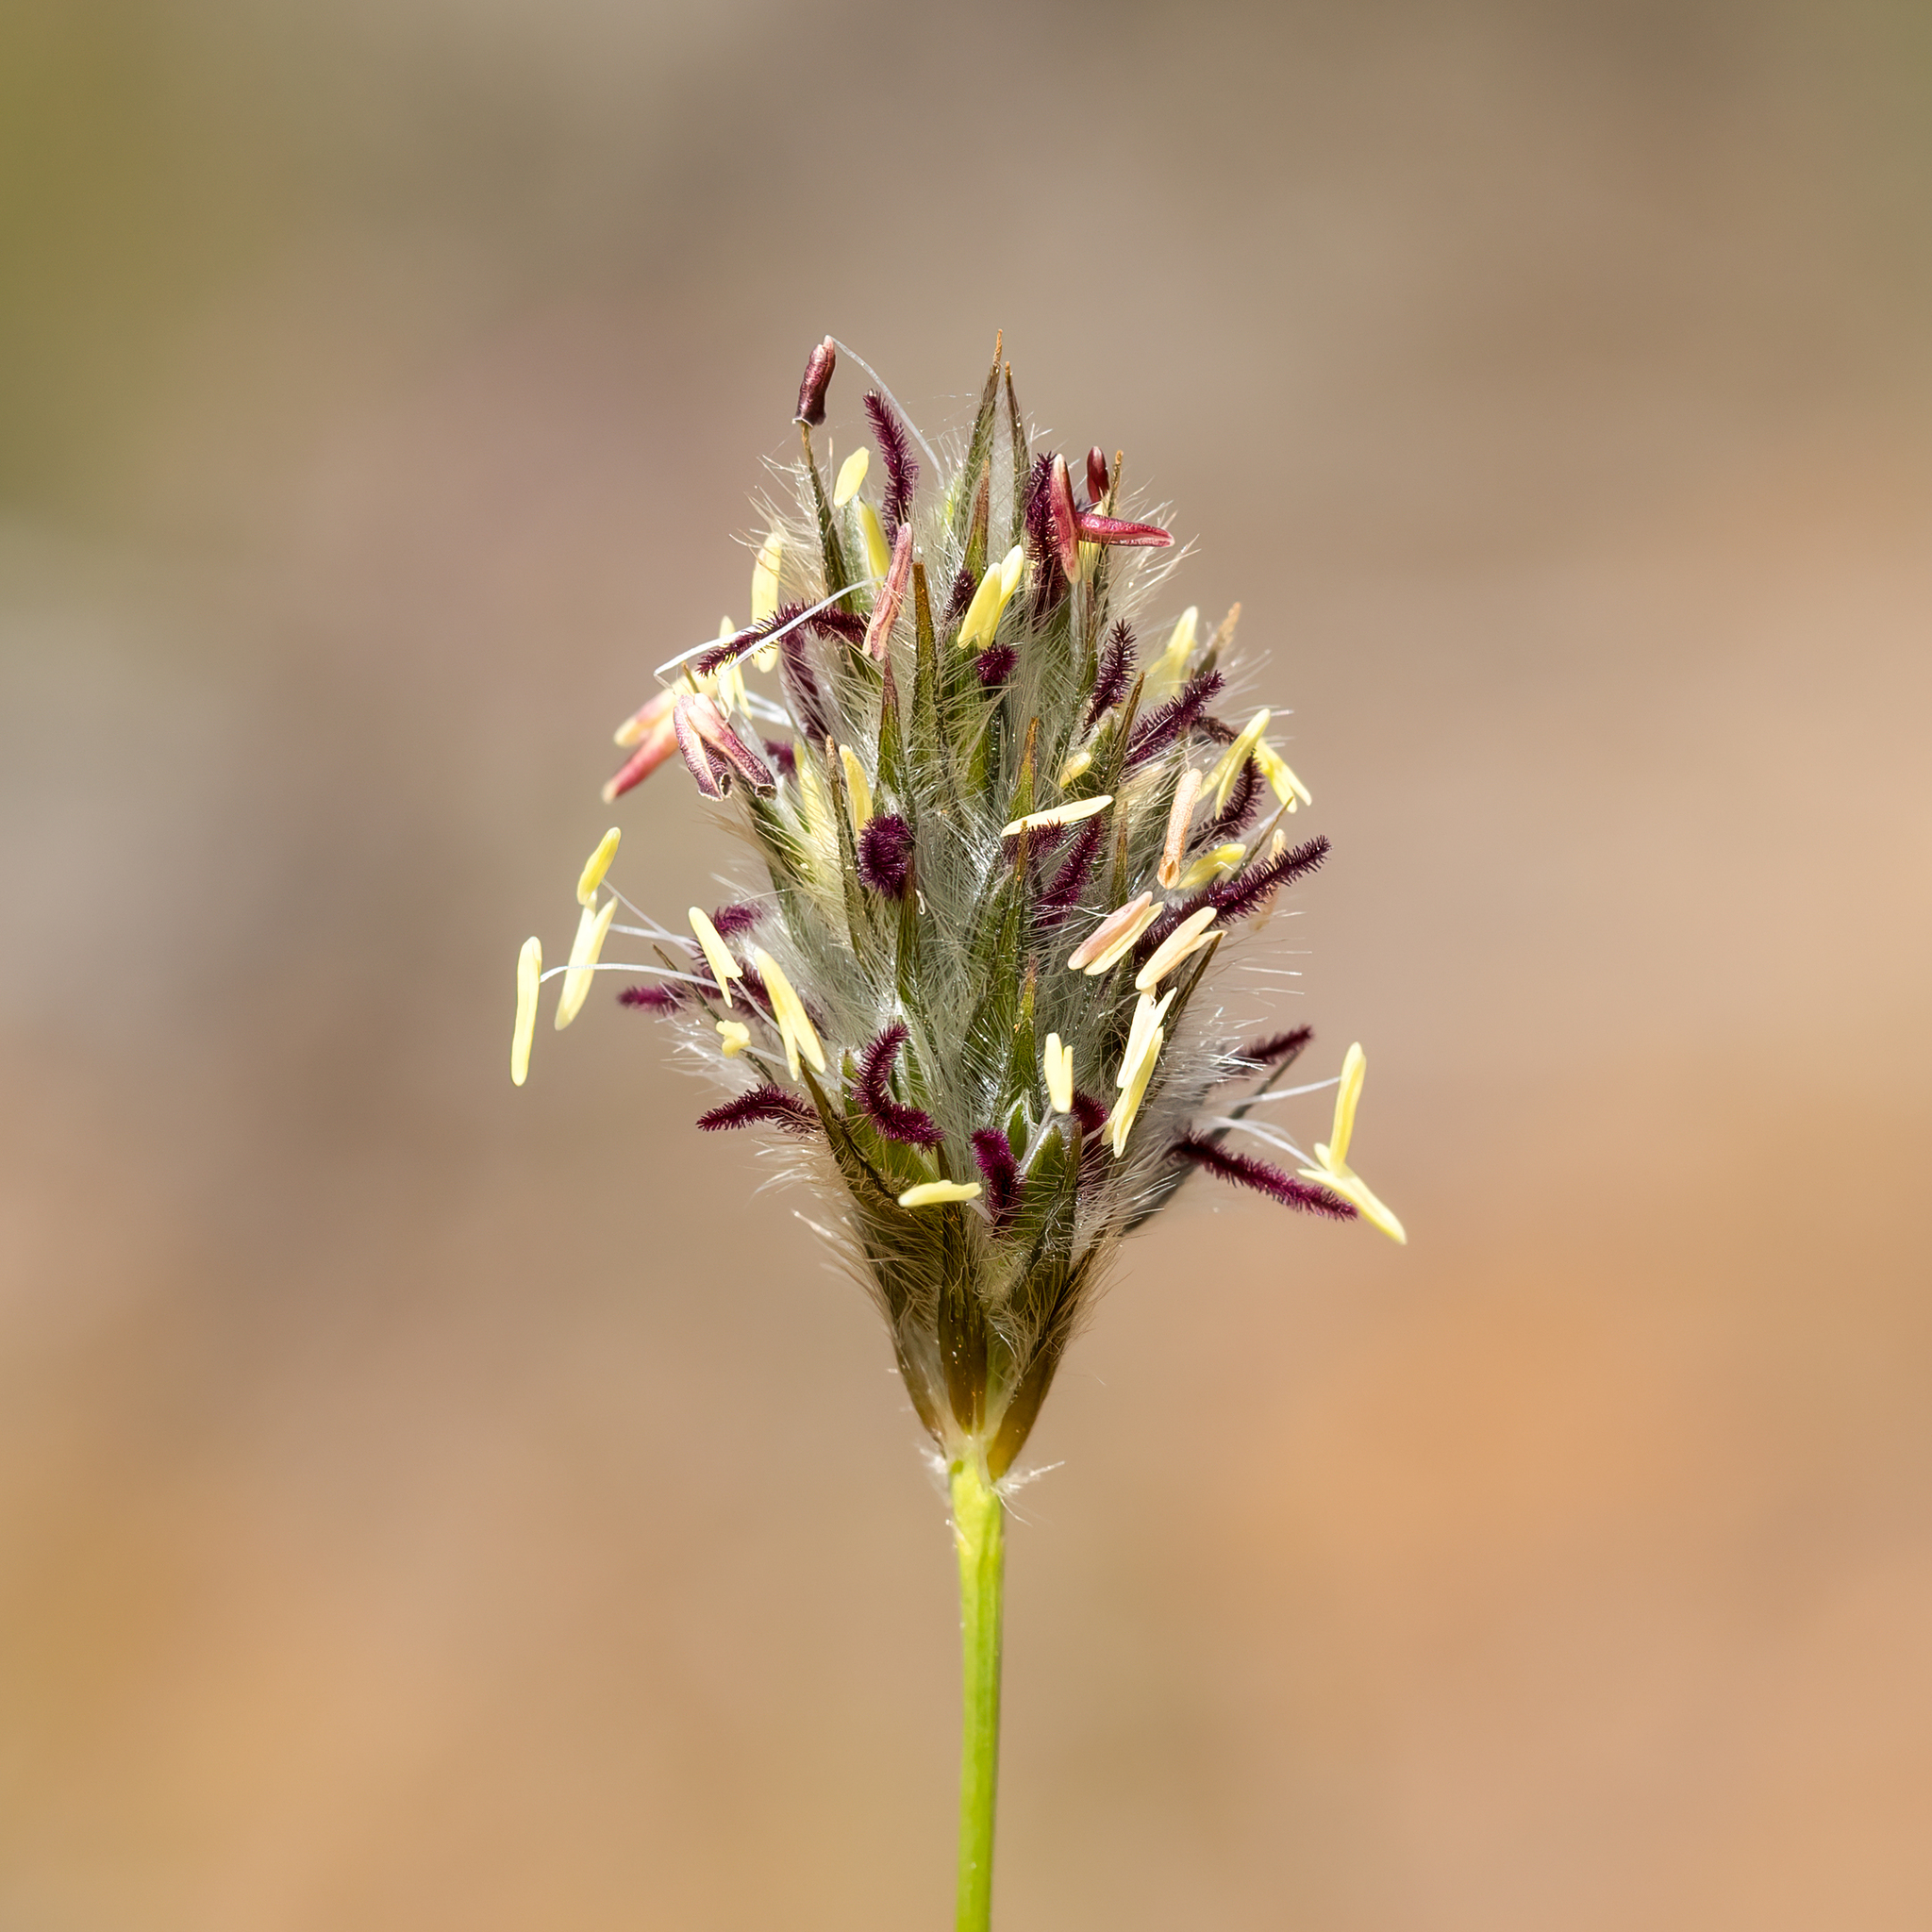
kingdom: Plantae
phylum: Tracheophyta
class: Liliopsida
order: Poales
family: Poaceae
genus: Neurachne
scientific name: Neurachne alopecuroidea
